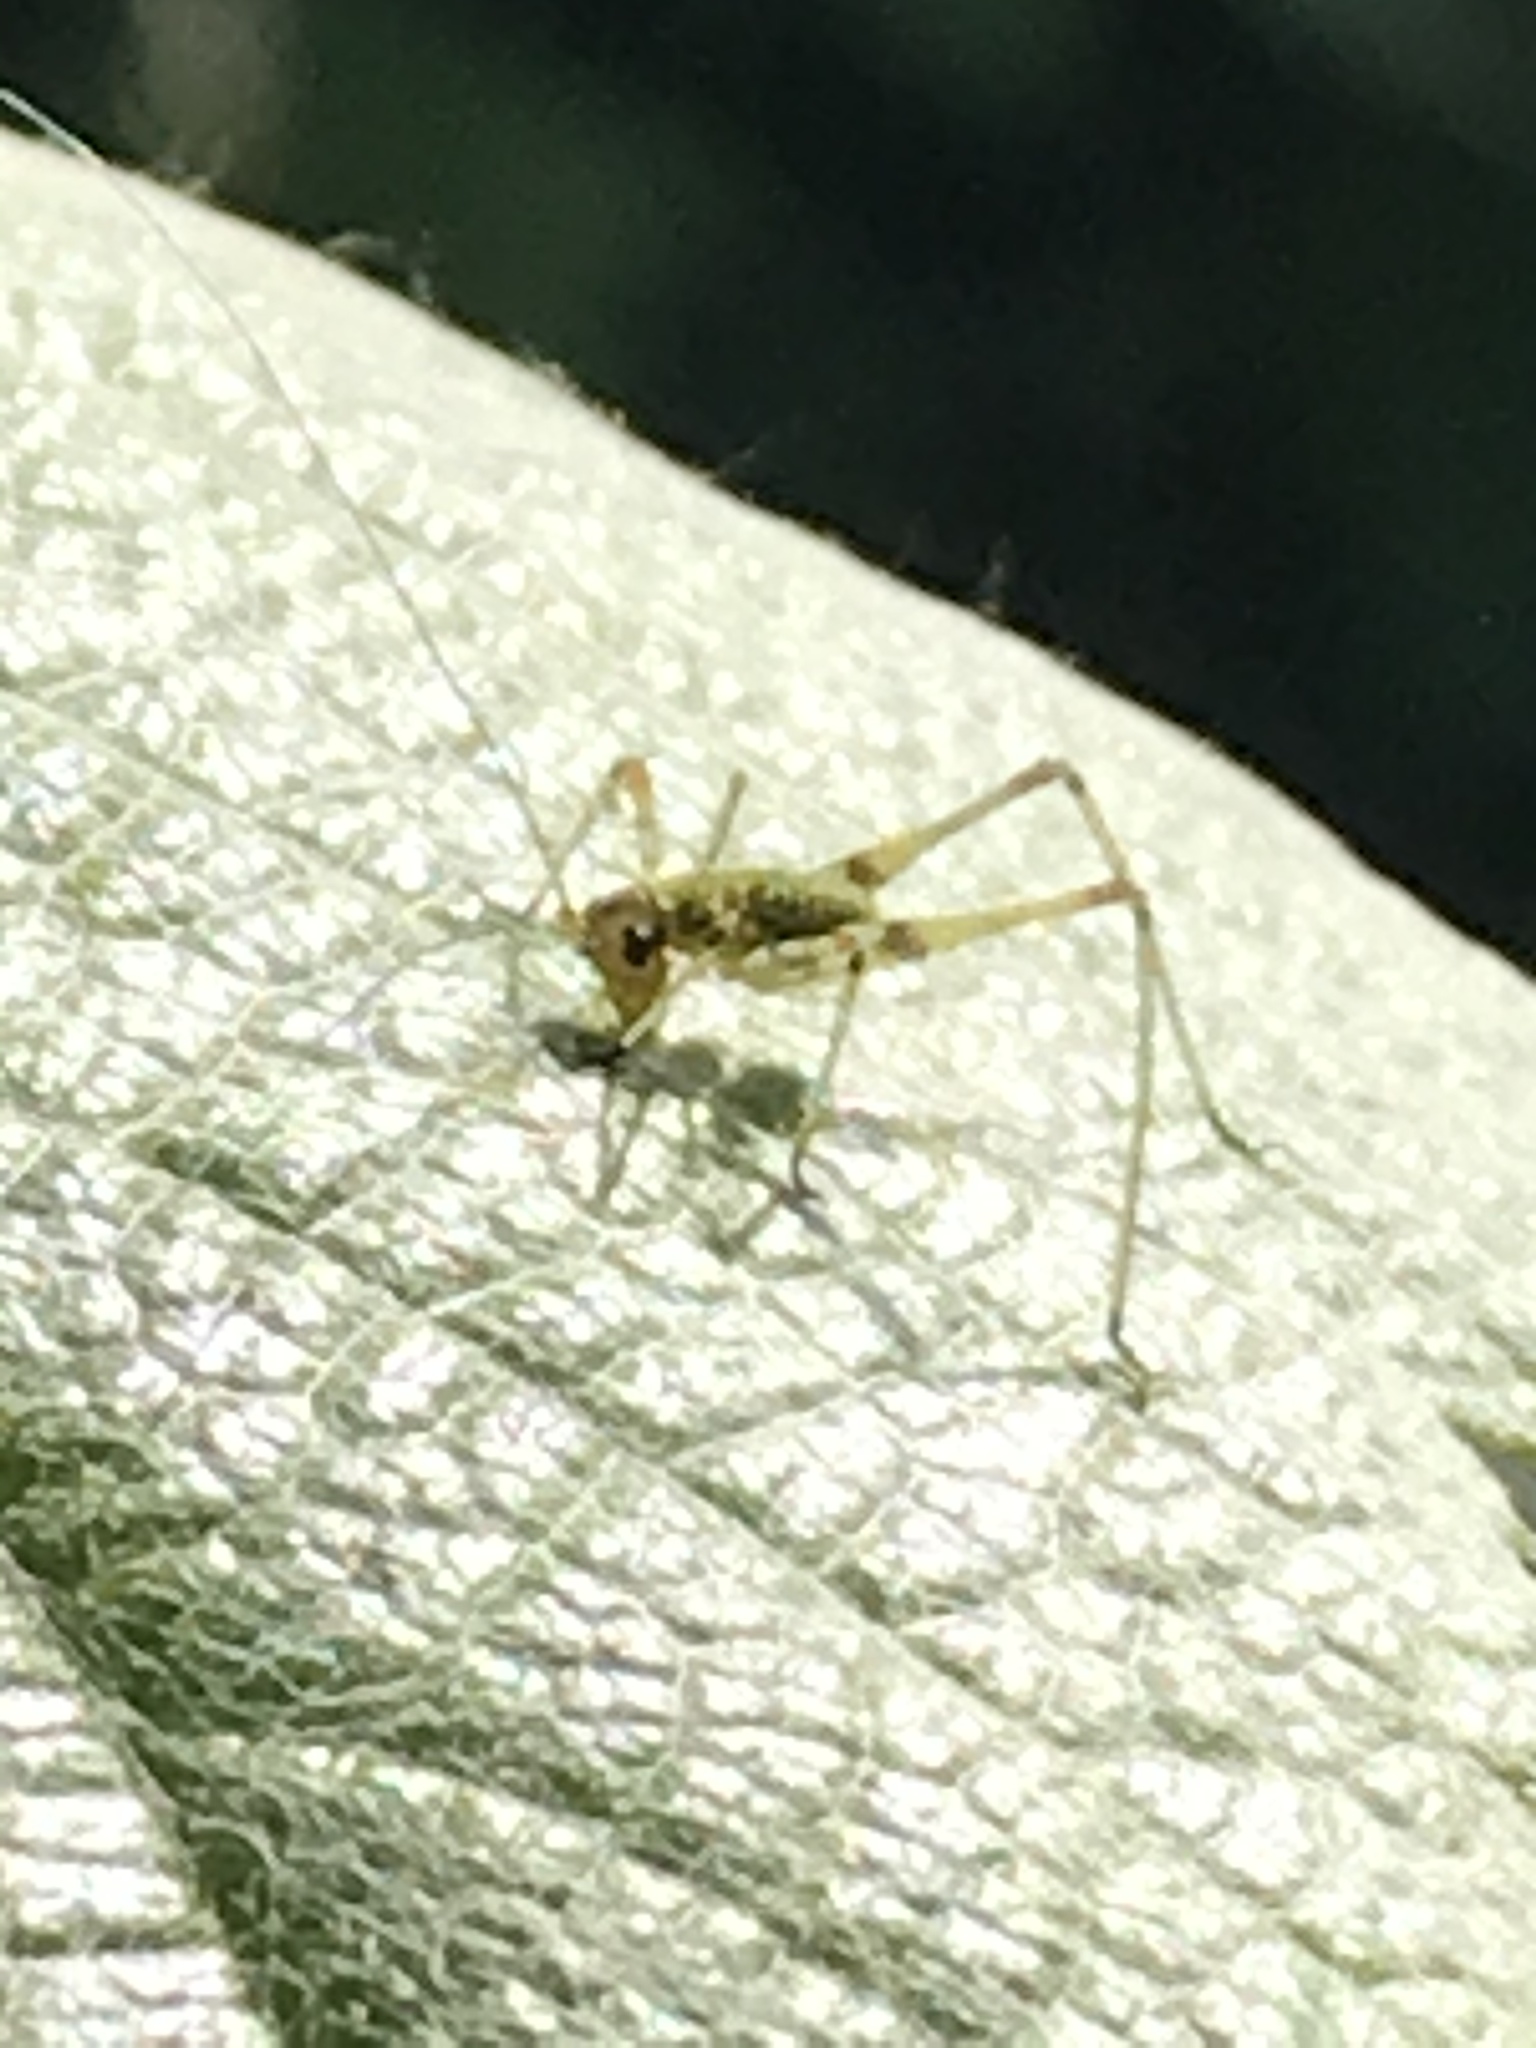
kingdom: Animalia
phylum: Arthropoda
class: Insecta
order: Orthoptera
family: Tettigoniidae
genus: Phaneroptera
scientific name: Phaneroptera nana
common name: Southern sickle bush-cricket
